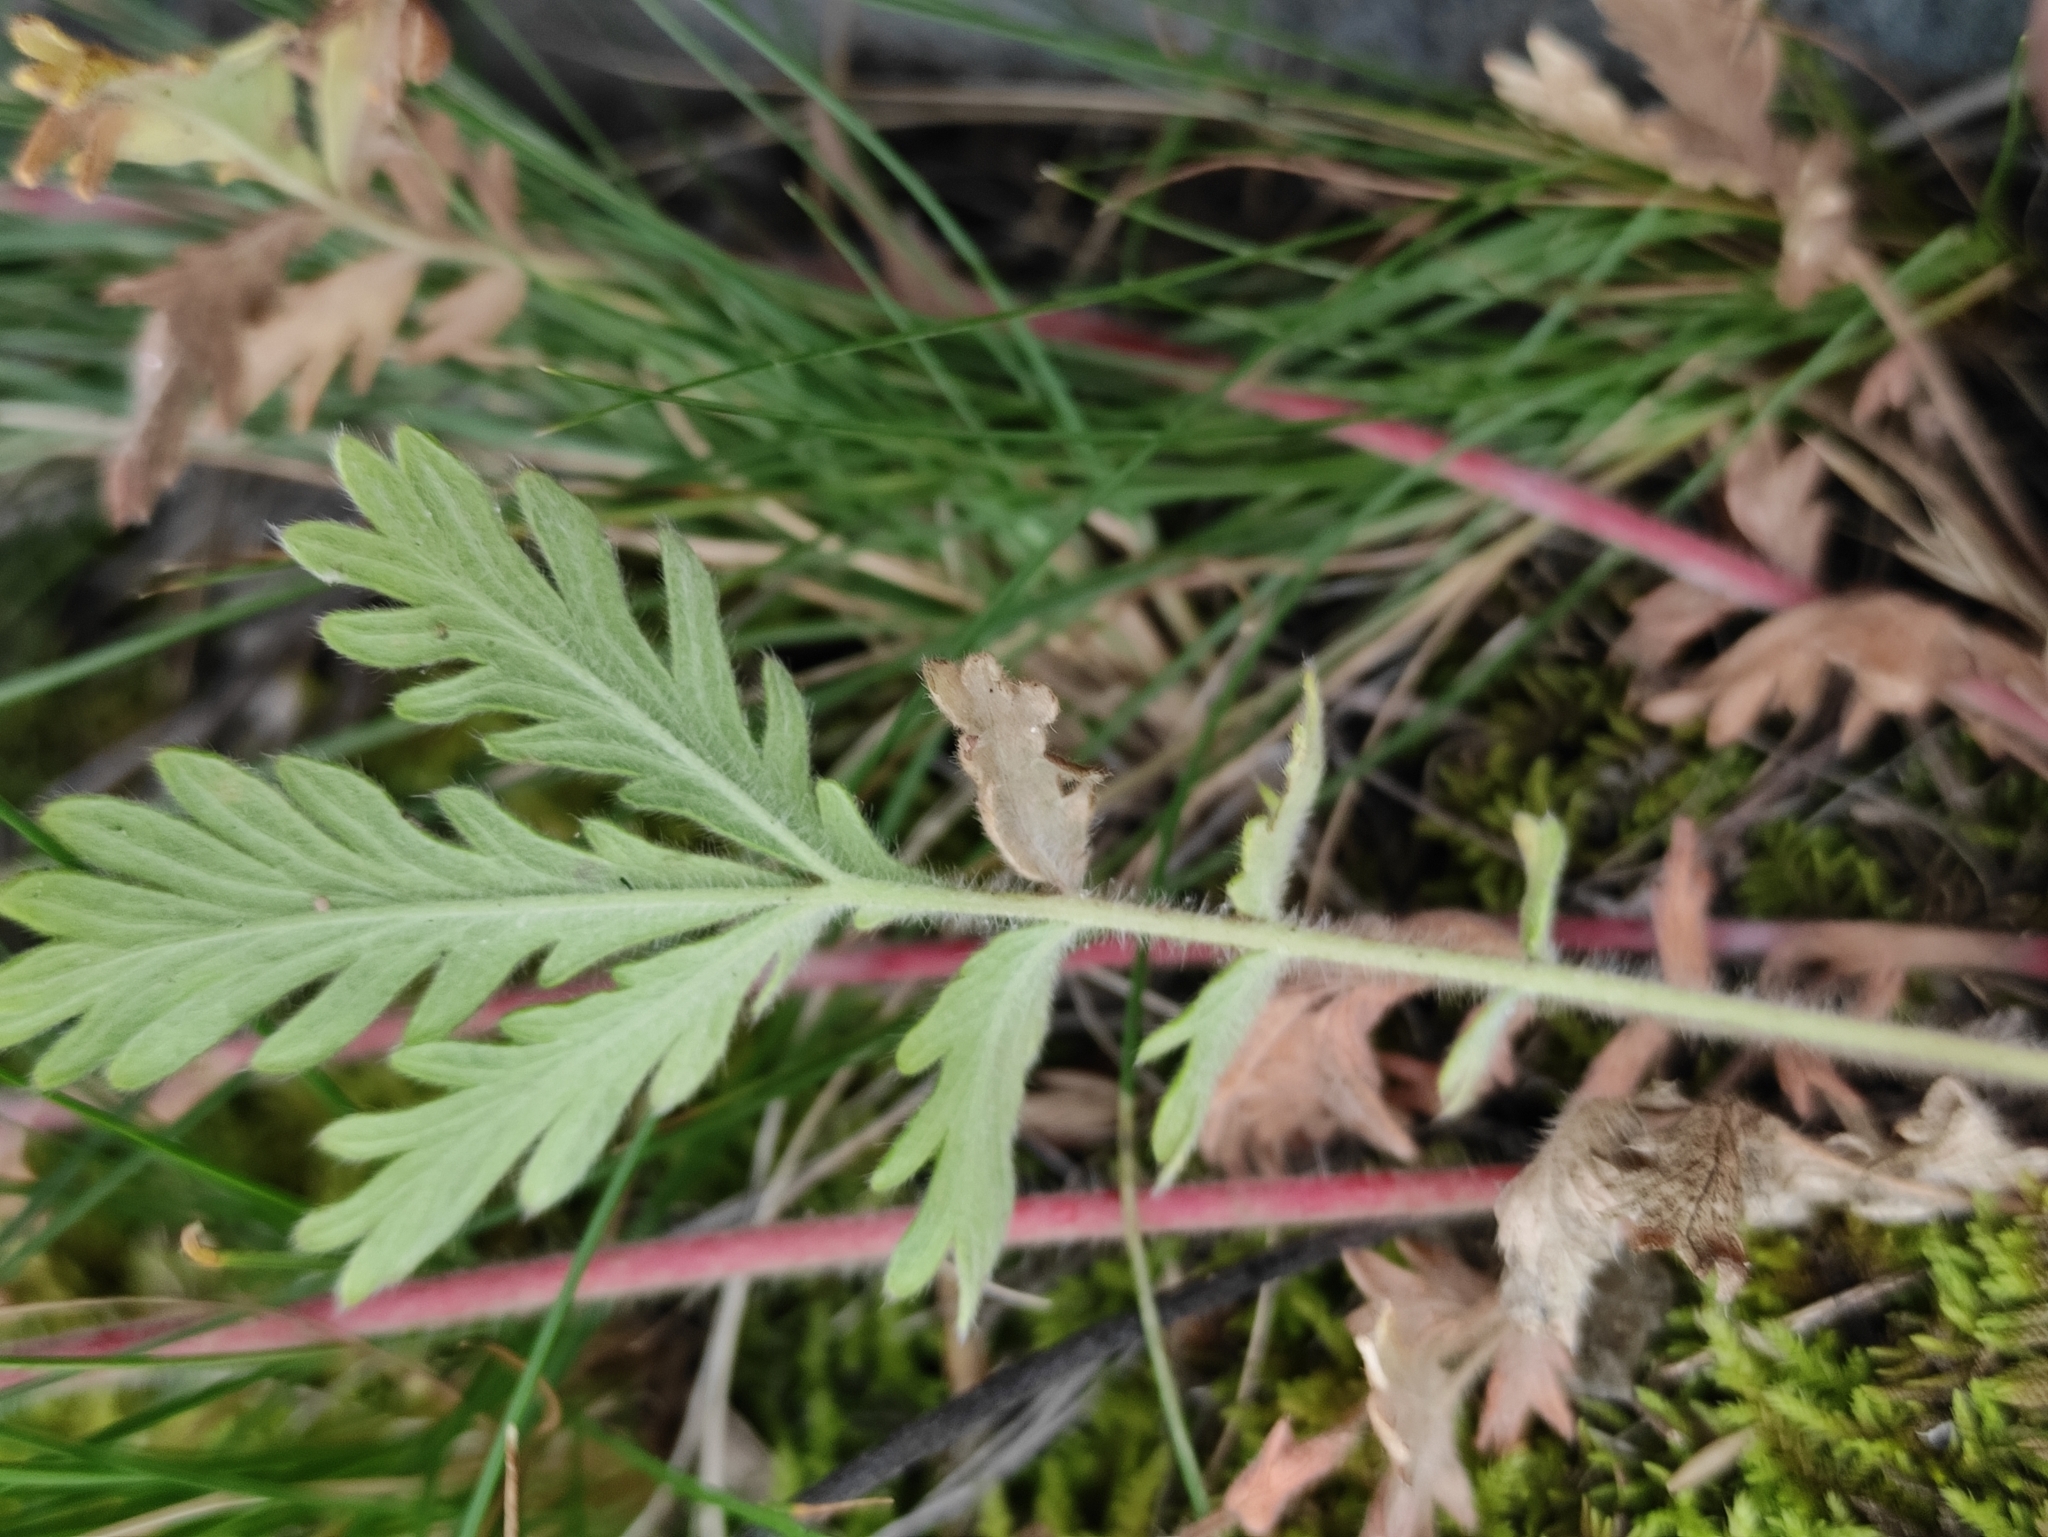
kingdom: Plantae
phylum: Tracheophyta
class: Magnoliopsida
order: Rosales
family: Rosaceae
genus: Potentilla
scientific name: Potentilla pensylvanica
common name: Pennsylvania cinquefoil
